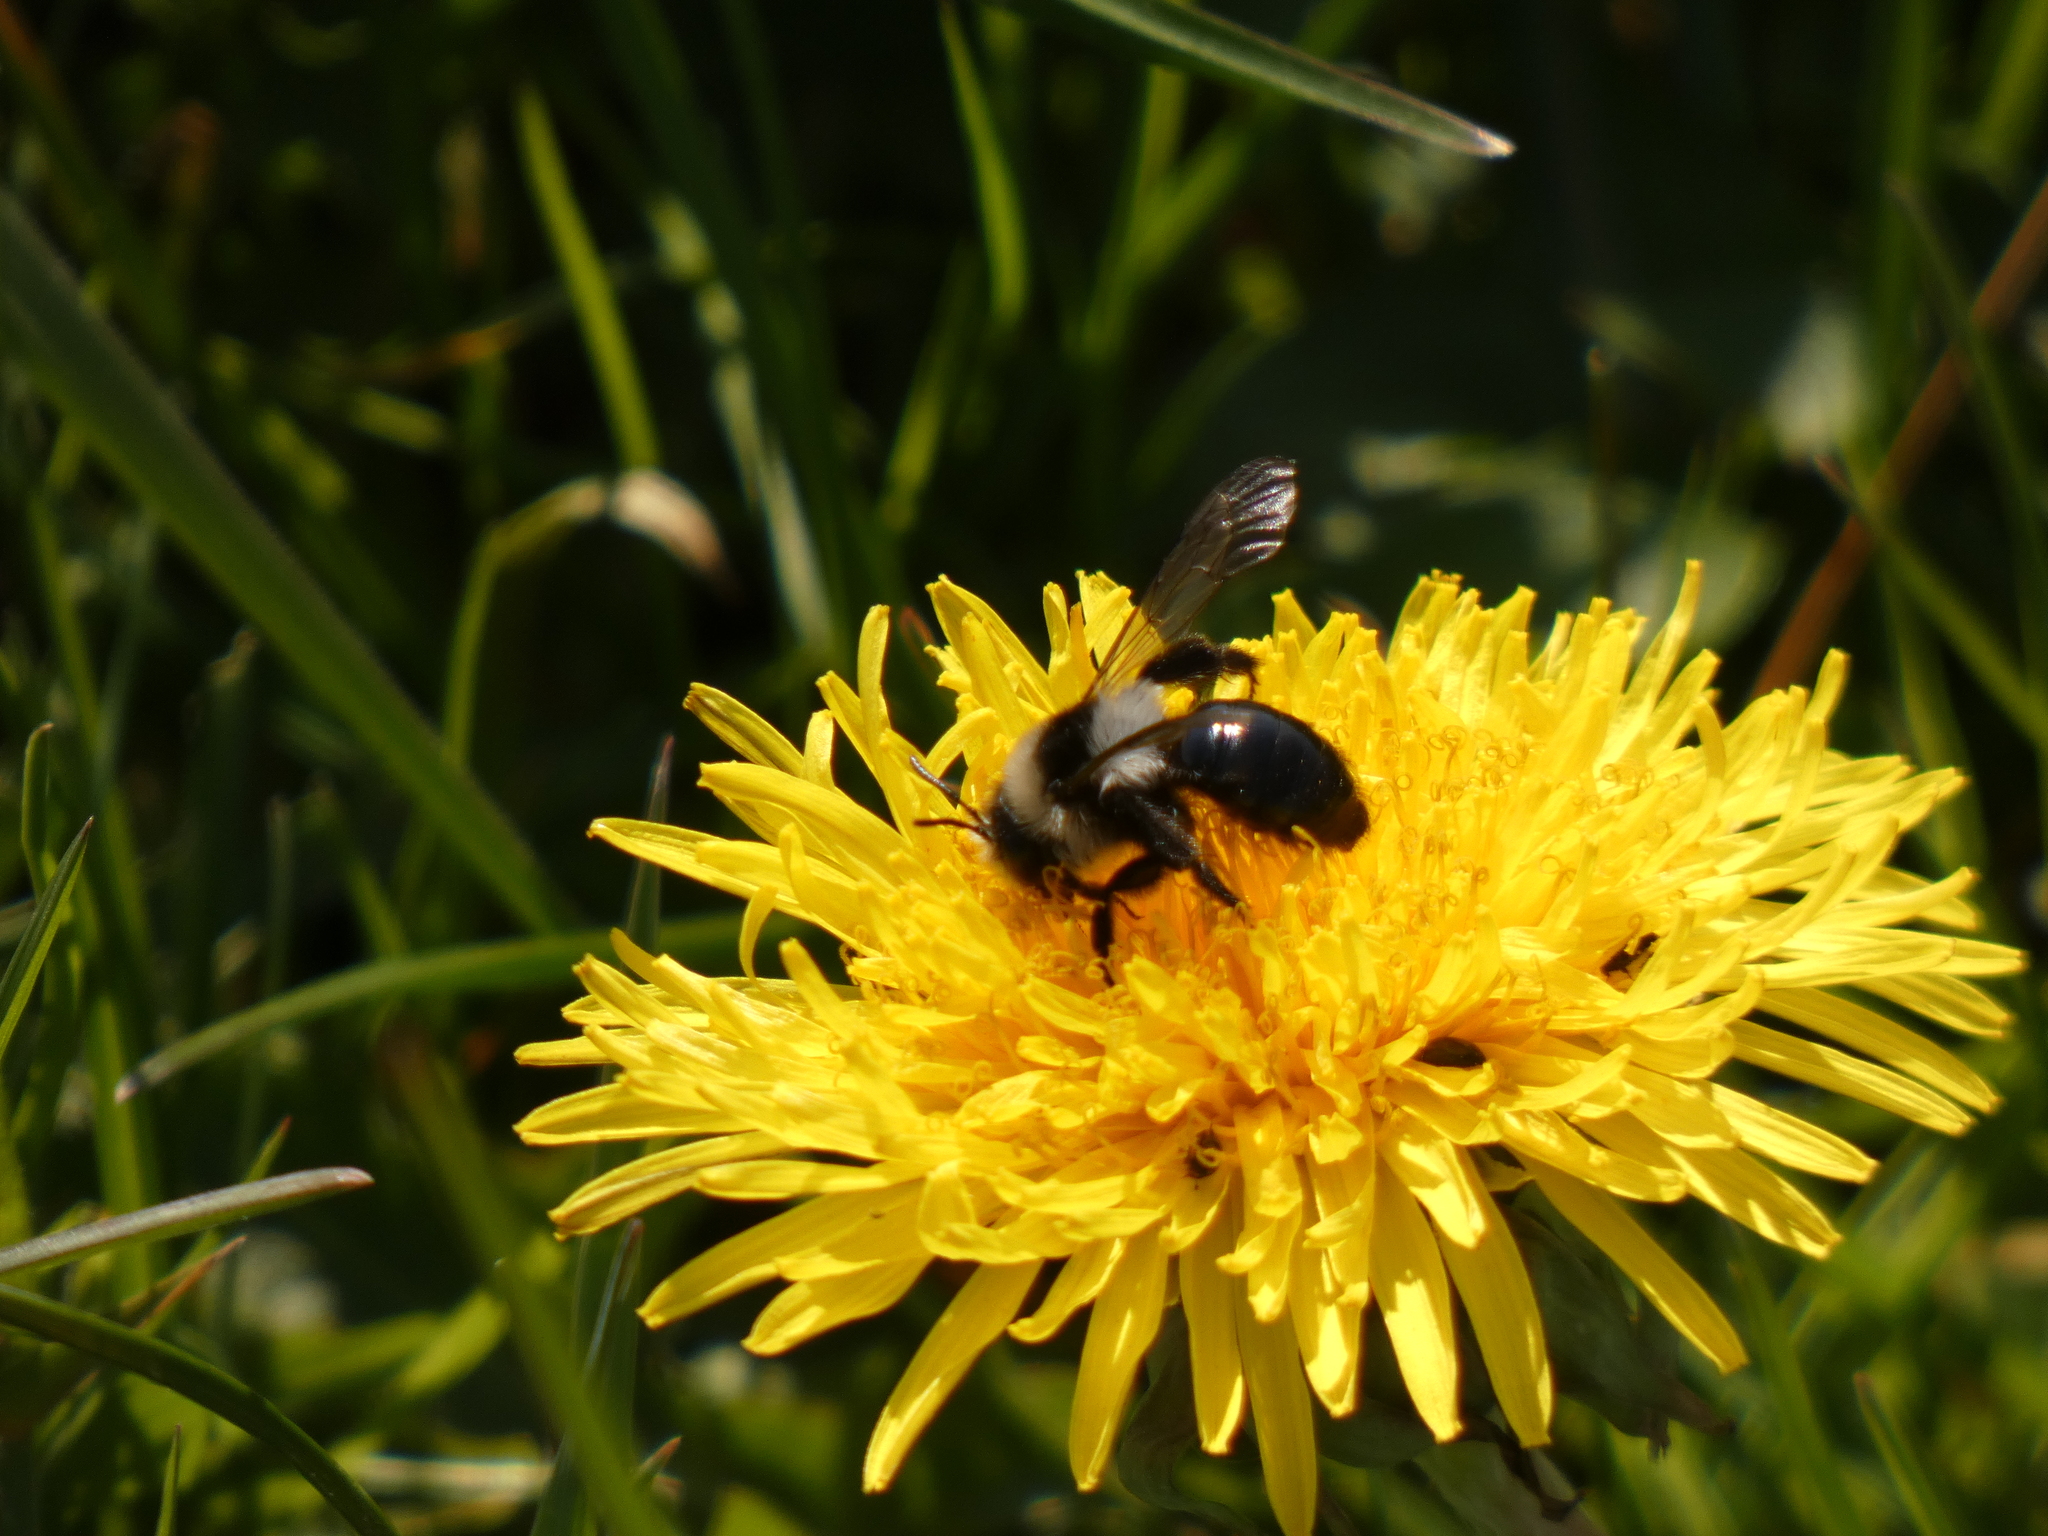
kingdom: Animalia
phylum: Arthropoda
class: Insecta
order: Hymenoptera
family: Andrenidae
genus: Andrena
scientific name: Andrena cineraria
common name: Ashy mining bee
